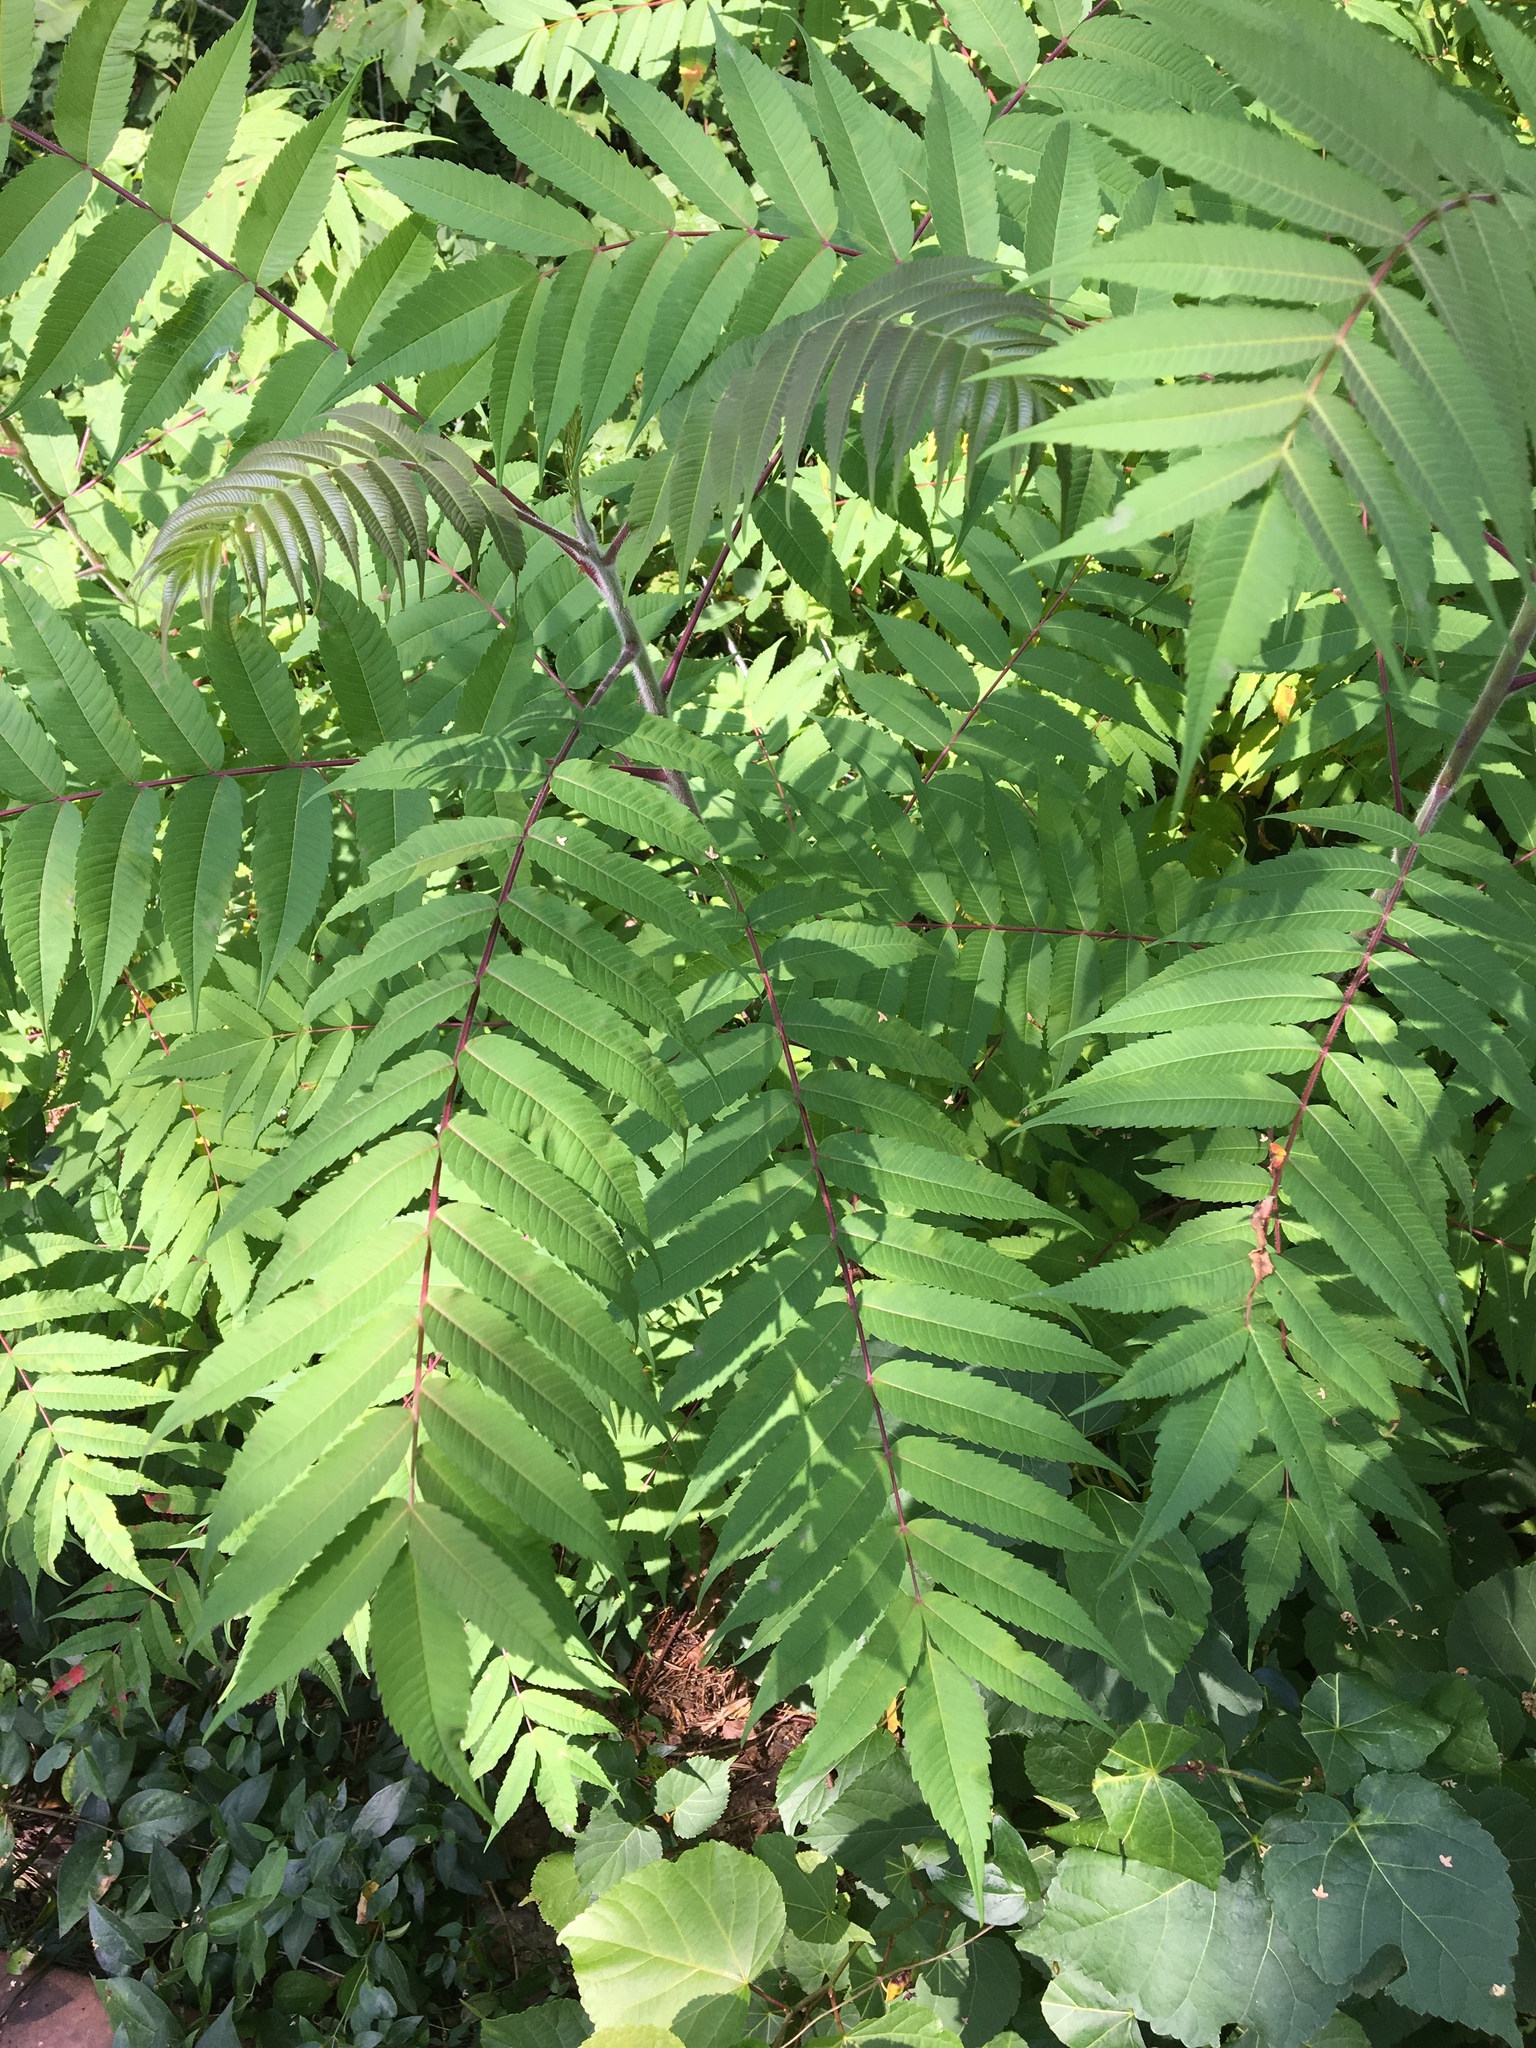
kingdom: Plantae
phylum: Tracheophyta
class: Magnoliopsida
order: Sapindales
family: Anacardiaceae
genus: Rhus
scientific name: Rhus typhina
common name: Staghorn sumac
